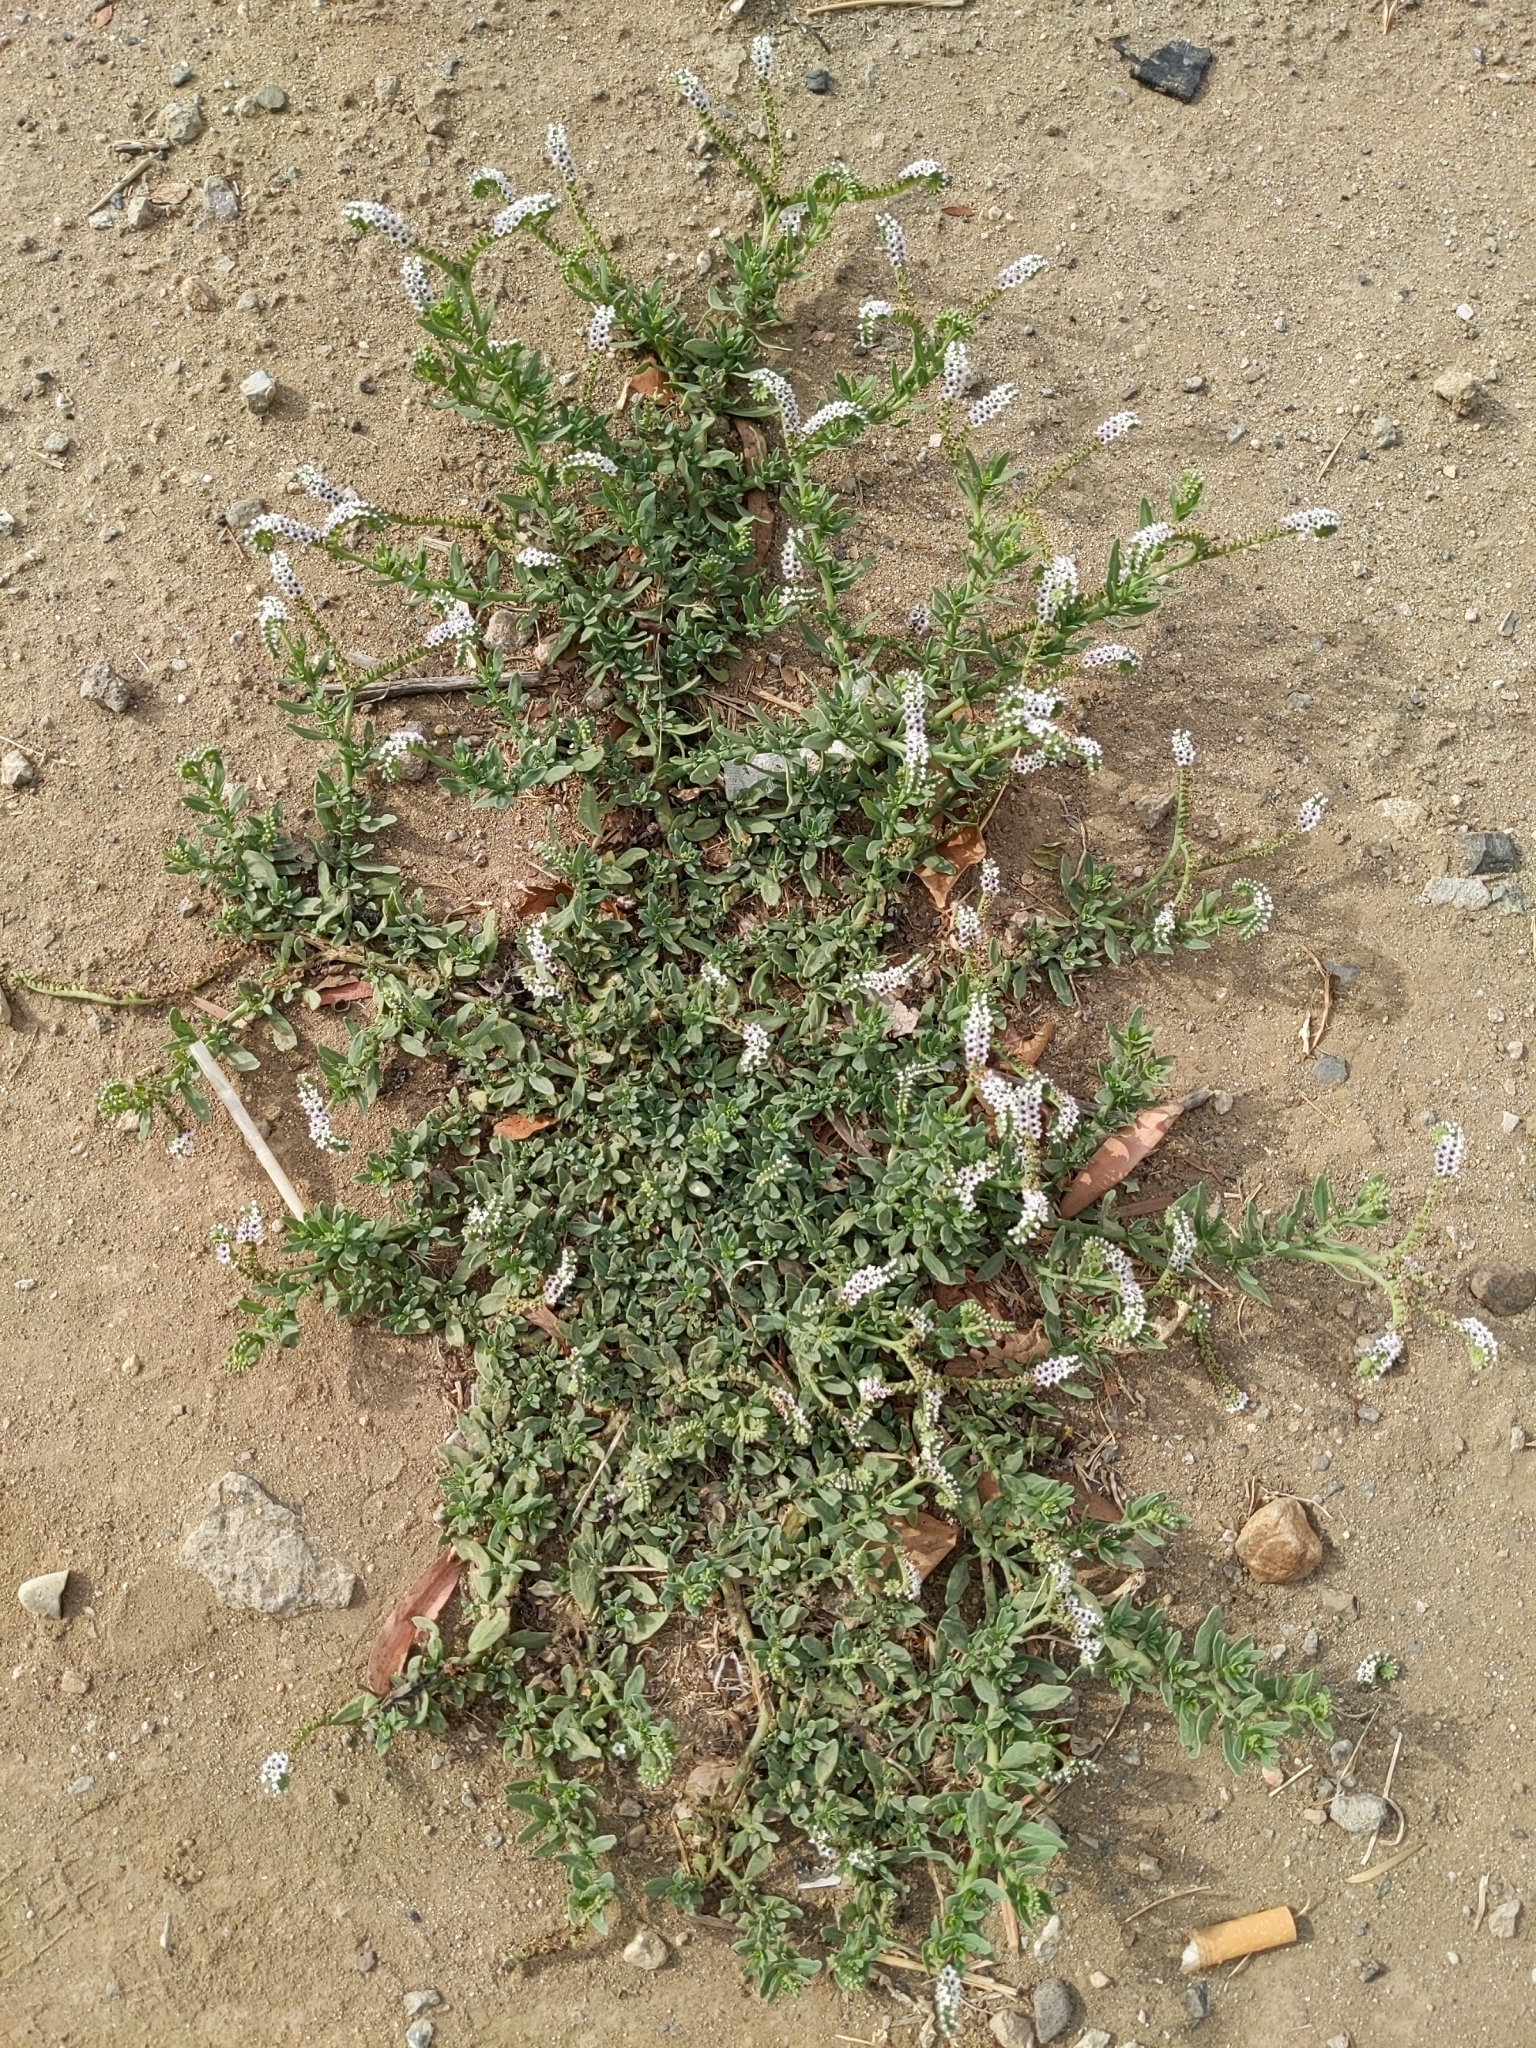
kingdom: Plantae
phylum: Tracheophyta
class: Magnoliopsida
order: Boraginales
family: Heliotropiaceae
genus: Heliotropium
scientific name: Heliotropium curassavicum
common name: Seaside heliotrope
